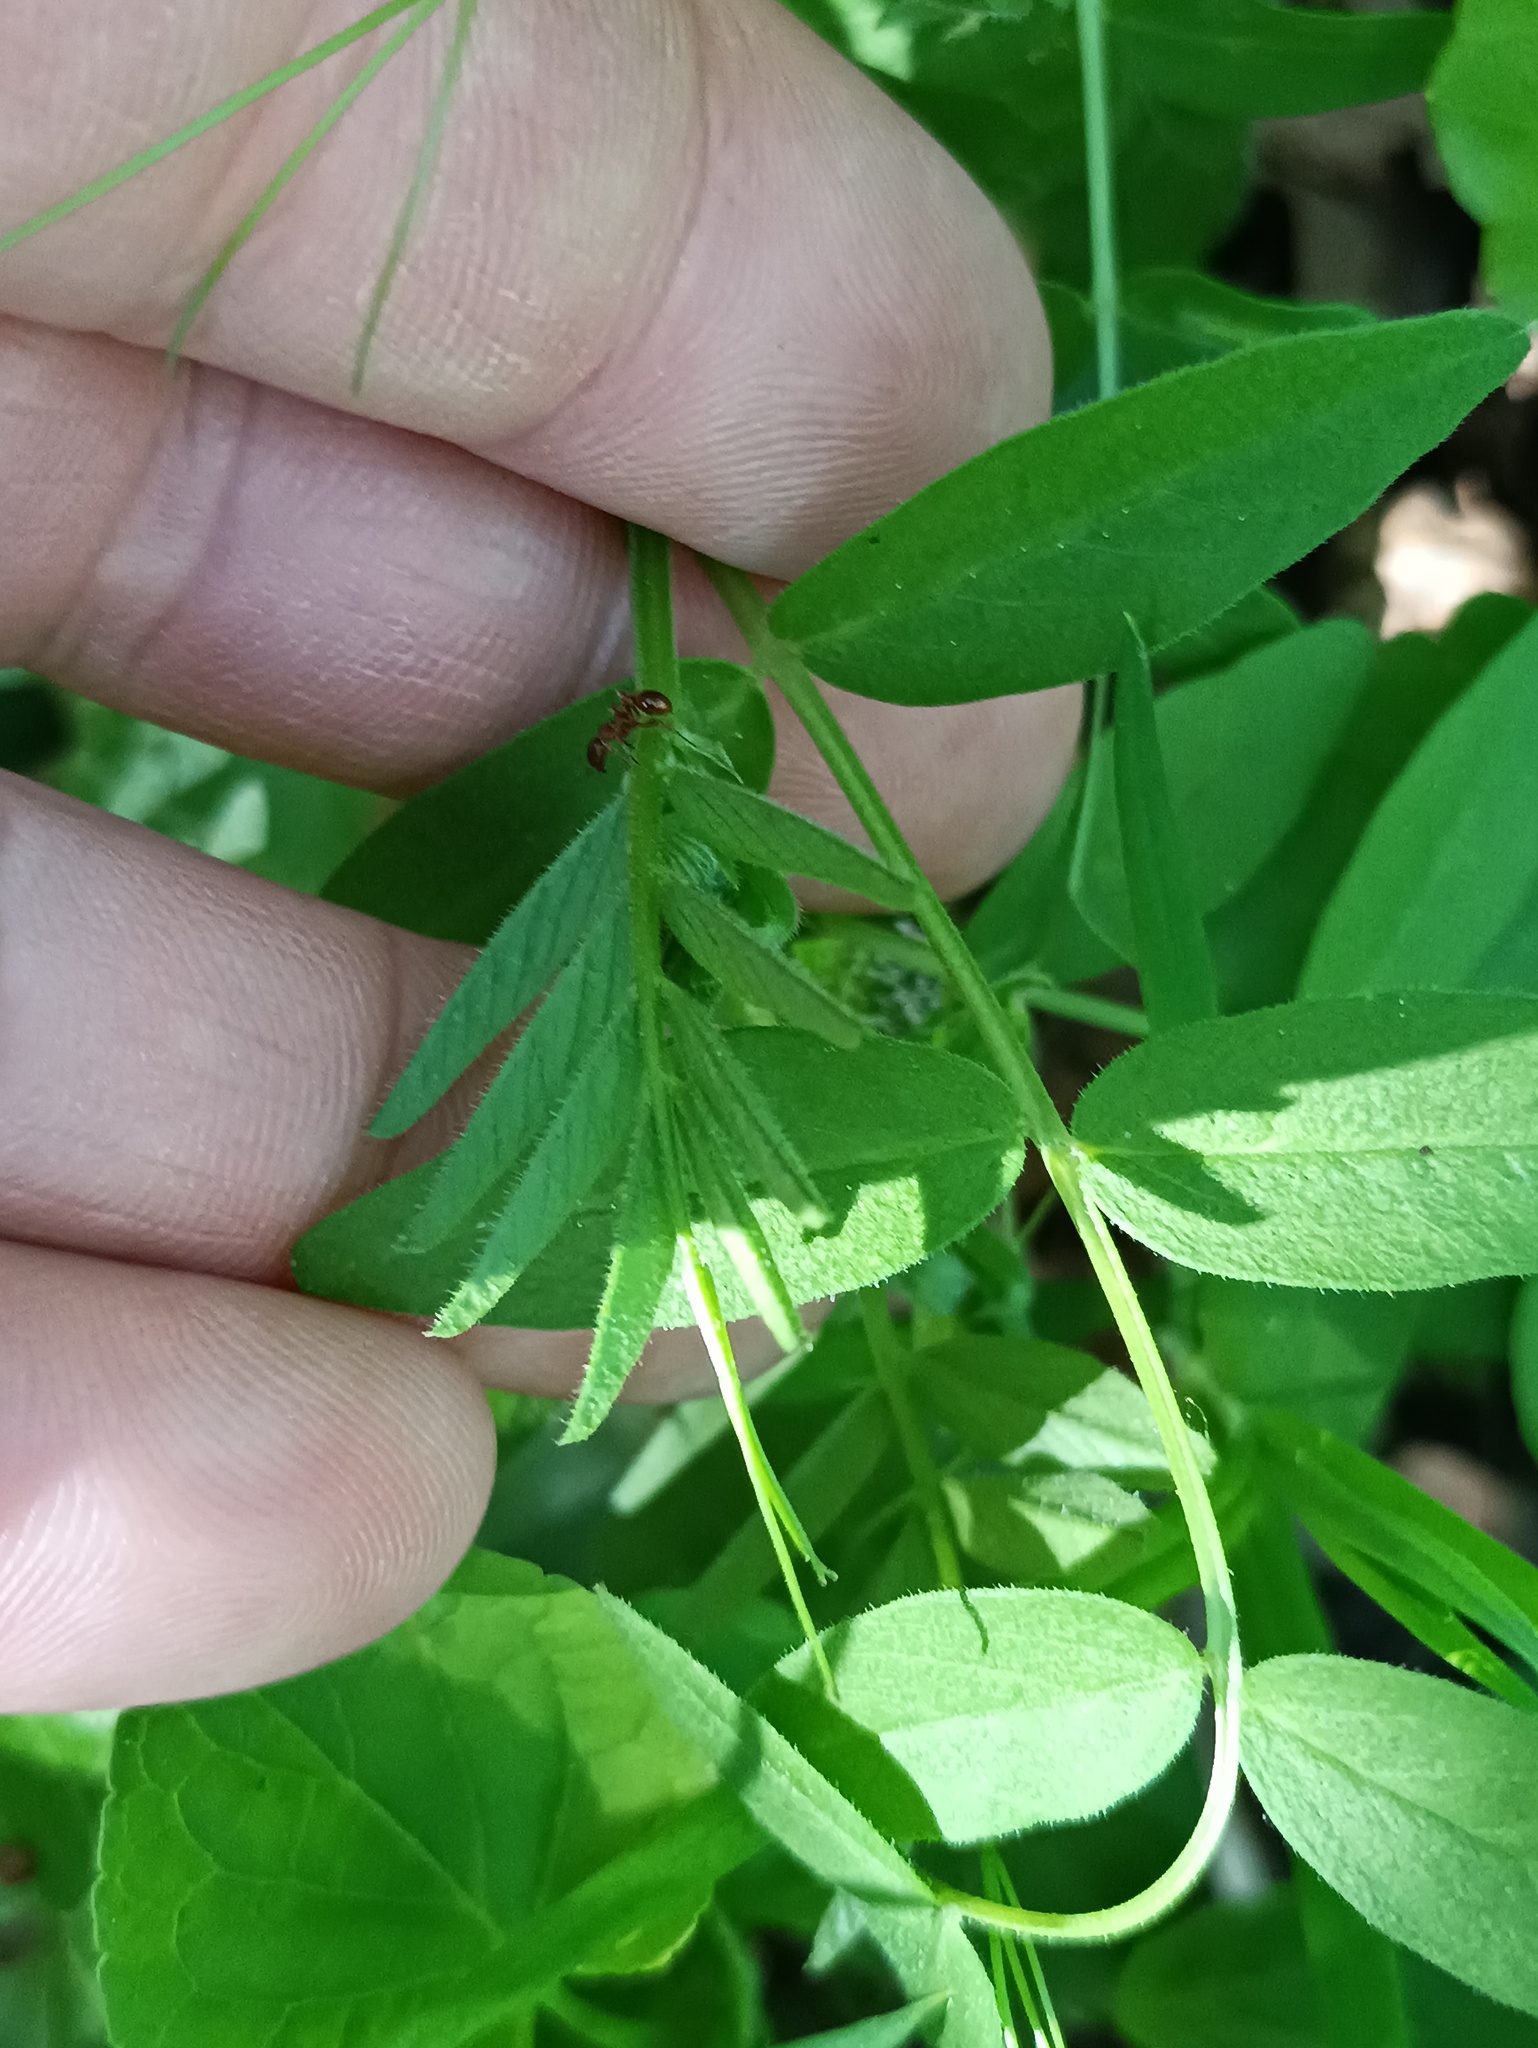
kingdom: Plantae
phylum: Tracheophyta
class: Magnoliopsida
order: Fabales
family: Fabaceae
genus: Vicia
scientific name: Vicia sylvatica
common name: Wood vetch
